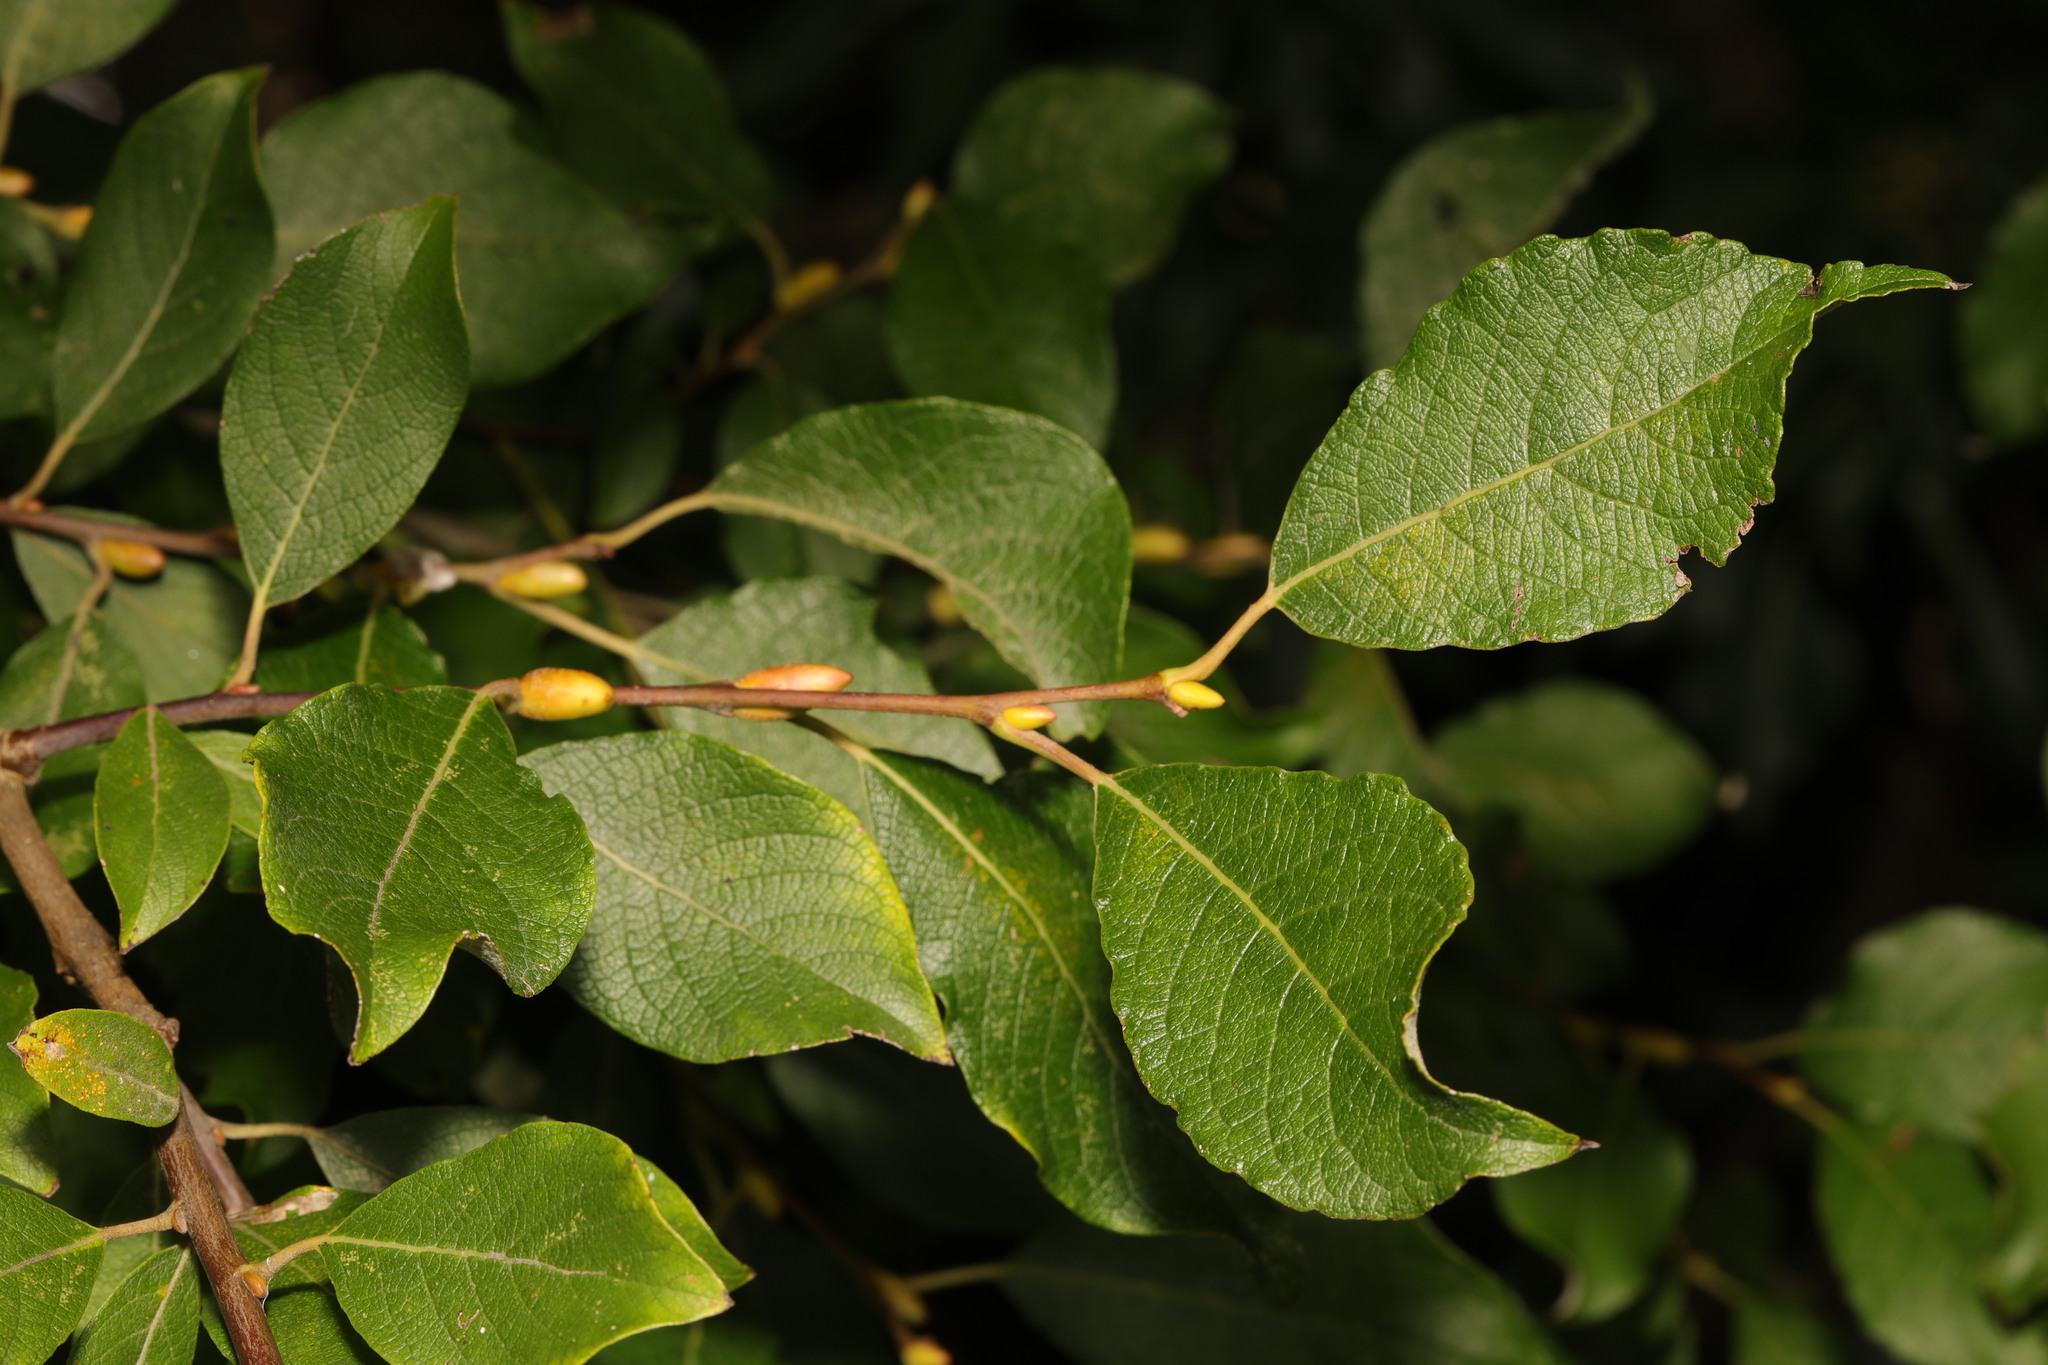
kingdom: Plantae
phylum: Tracheophyta
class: Magnoliopsida
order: Malpighiales
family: Salicaceae
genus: Salix
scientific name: Salix caprea
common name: Goat willow
